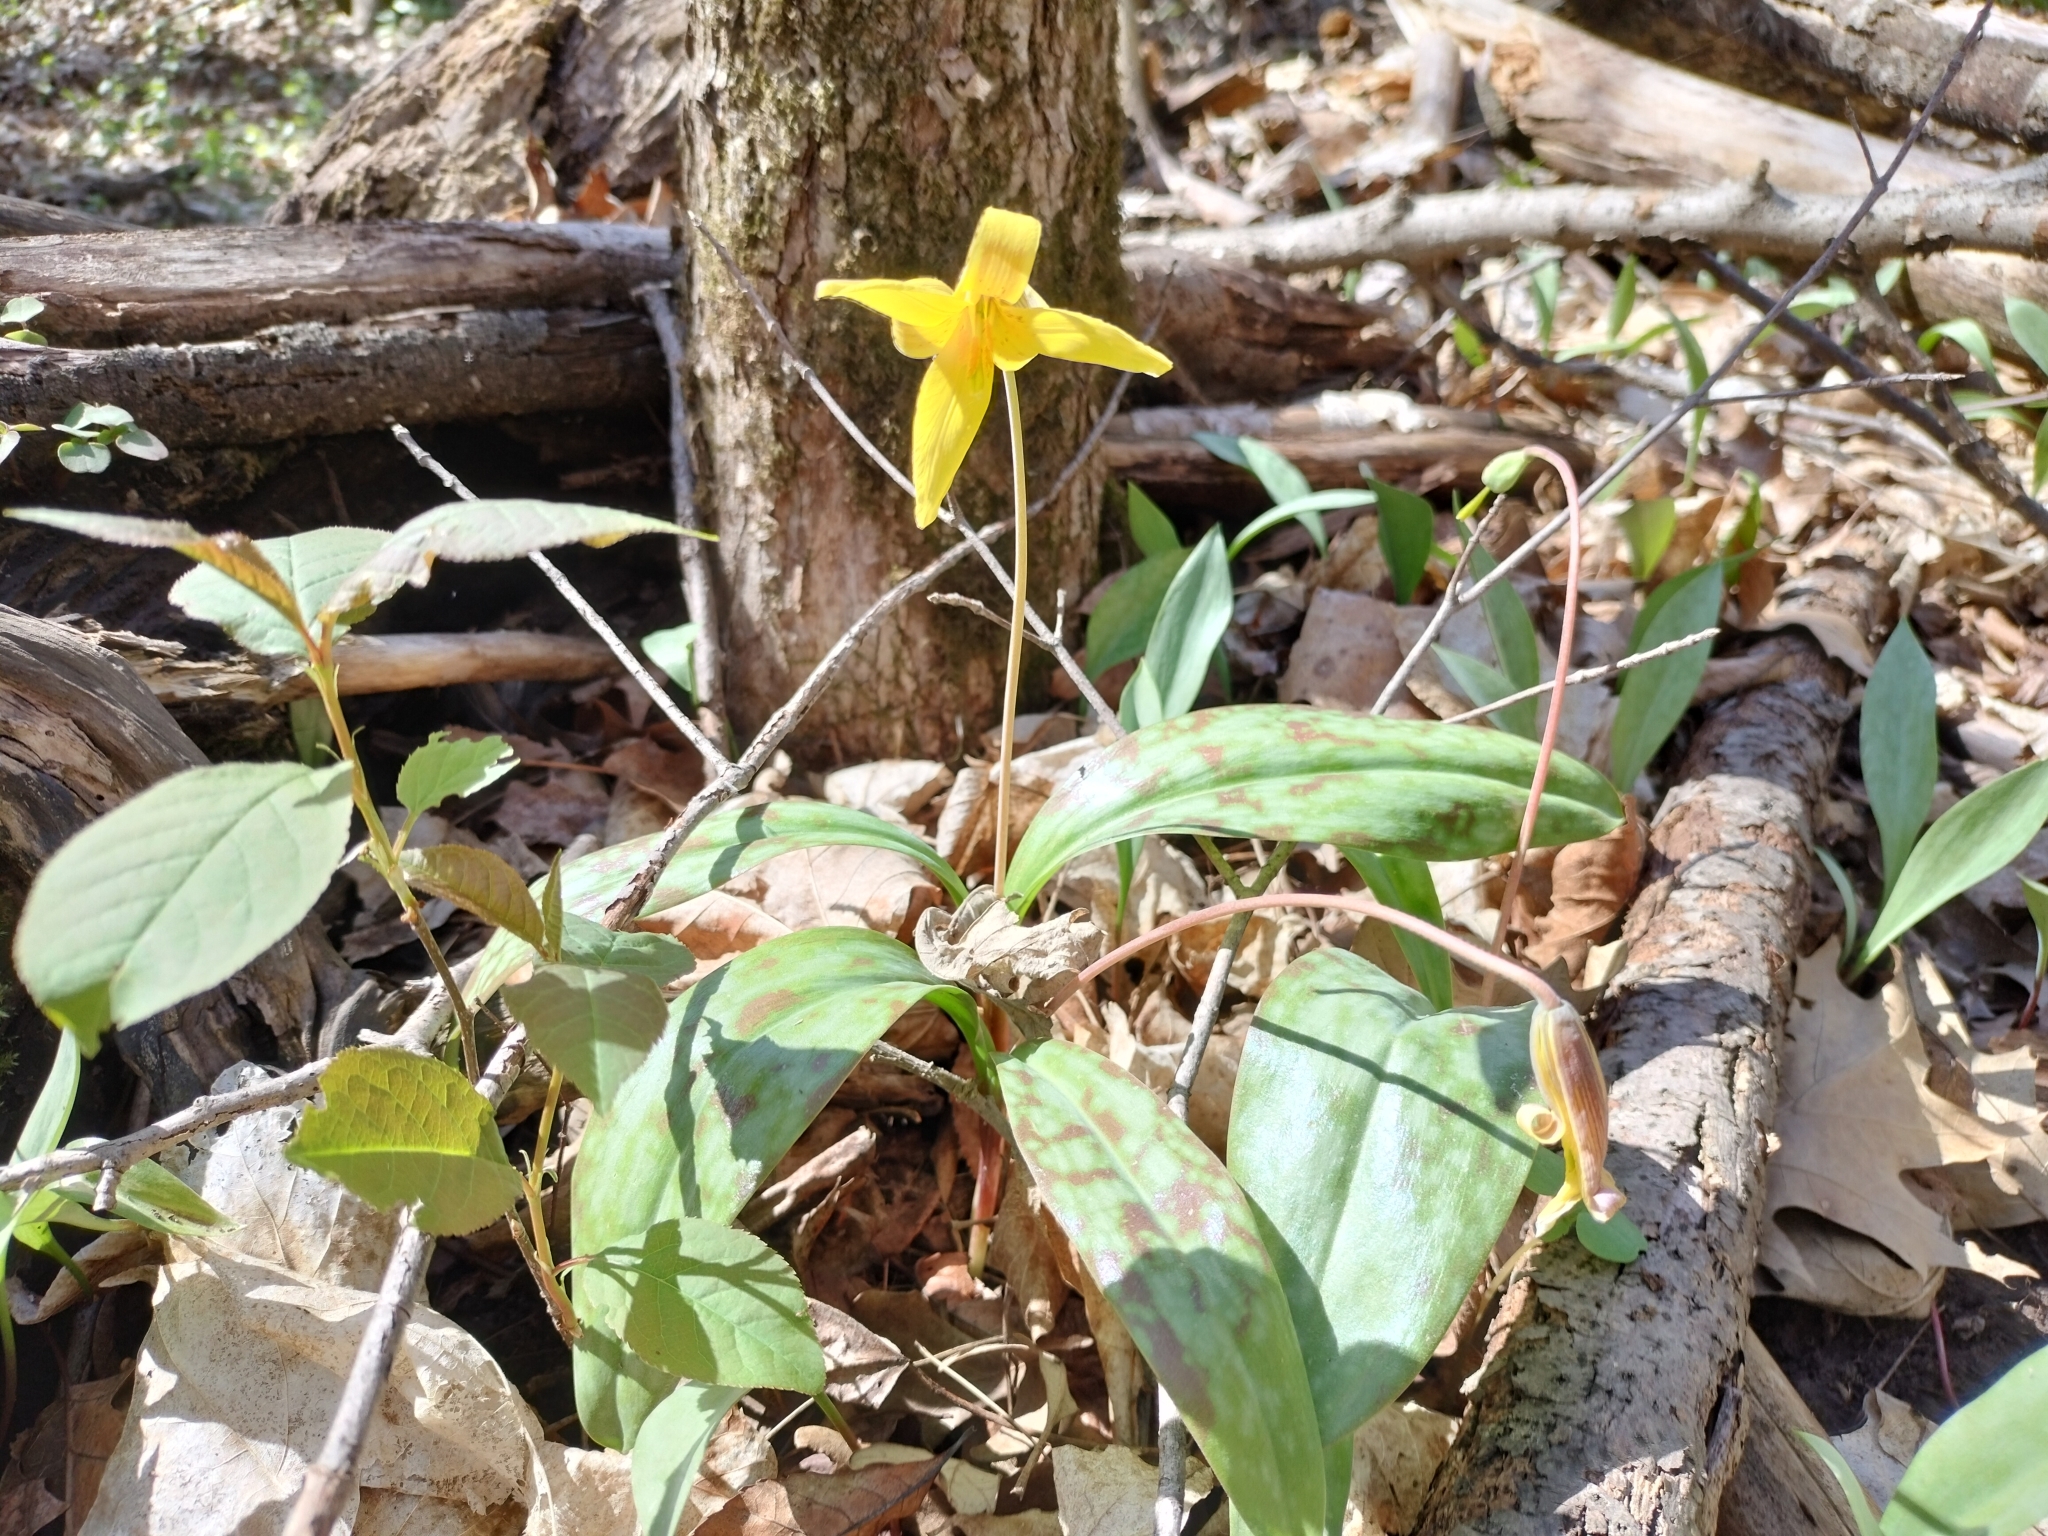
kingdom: Plantae
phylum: Tracheophyta
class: Liliopsida
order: Liliales
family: Liliaceae
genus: Erythronium
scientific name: Erythronium americanum
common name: Yellow adder's-tongue
